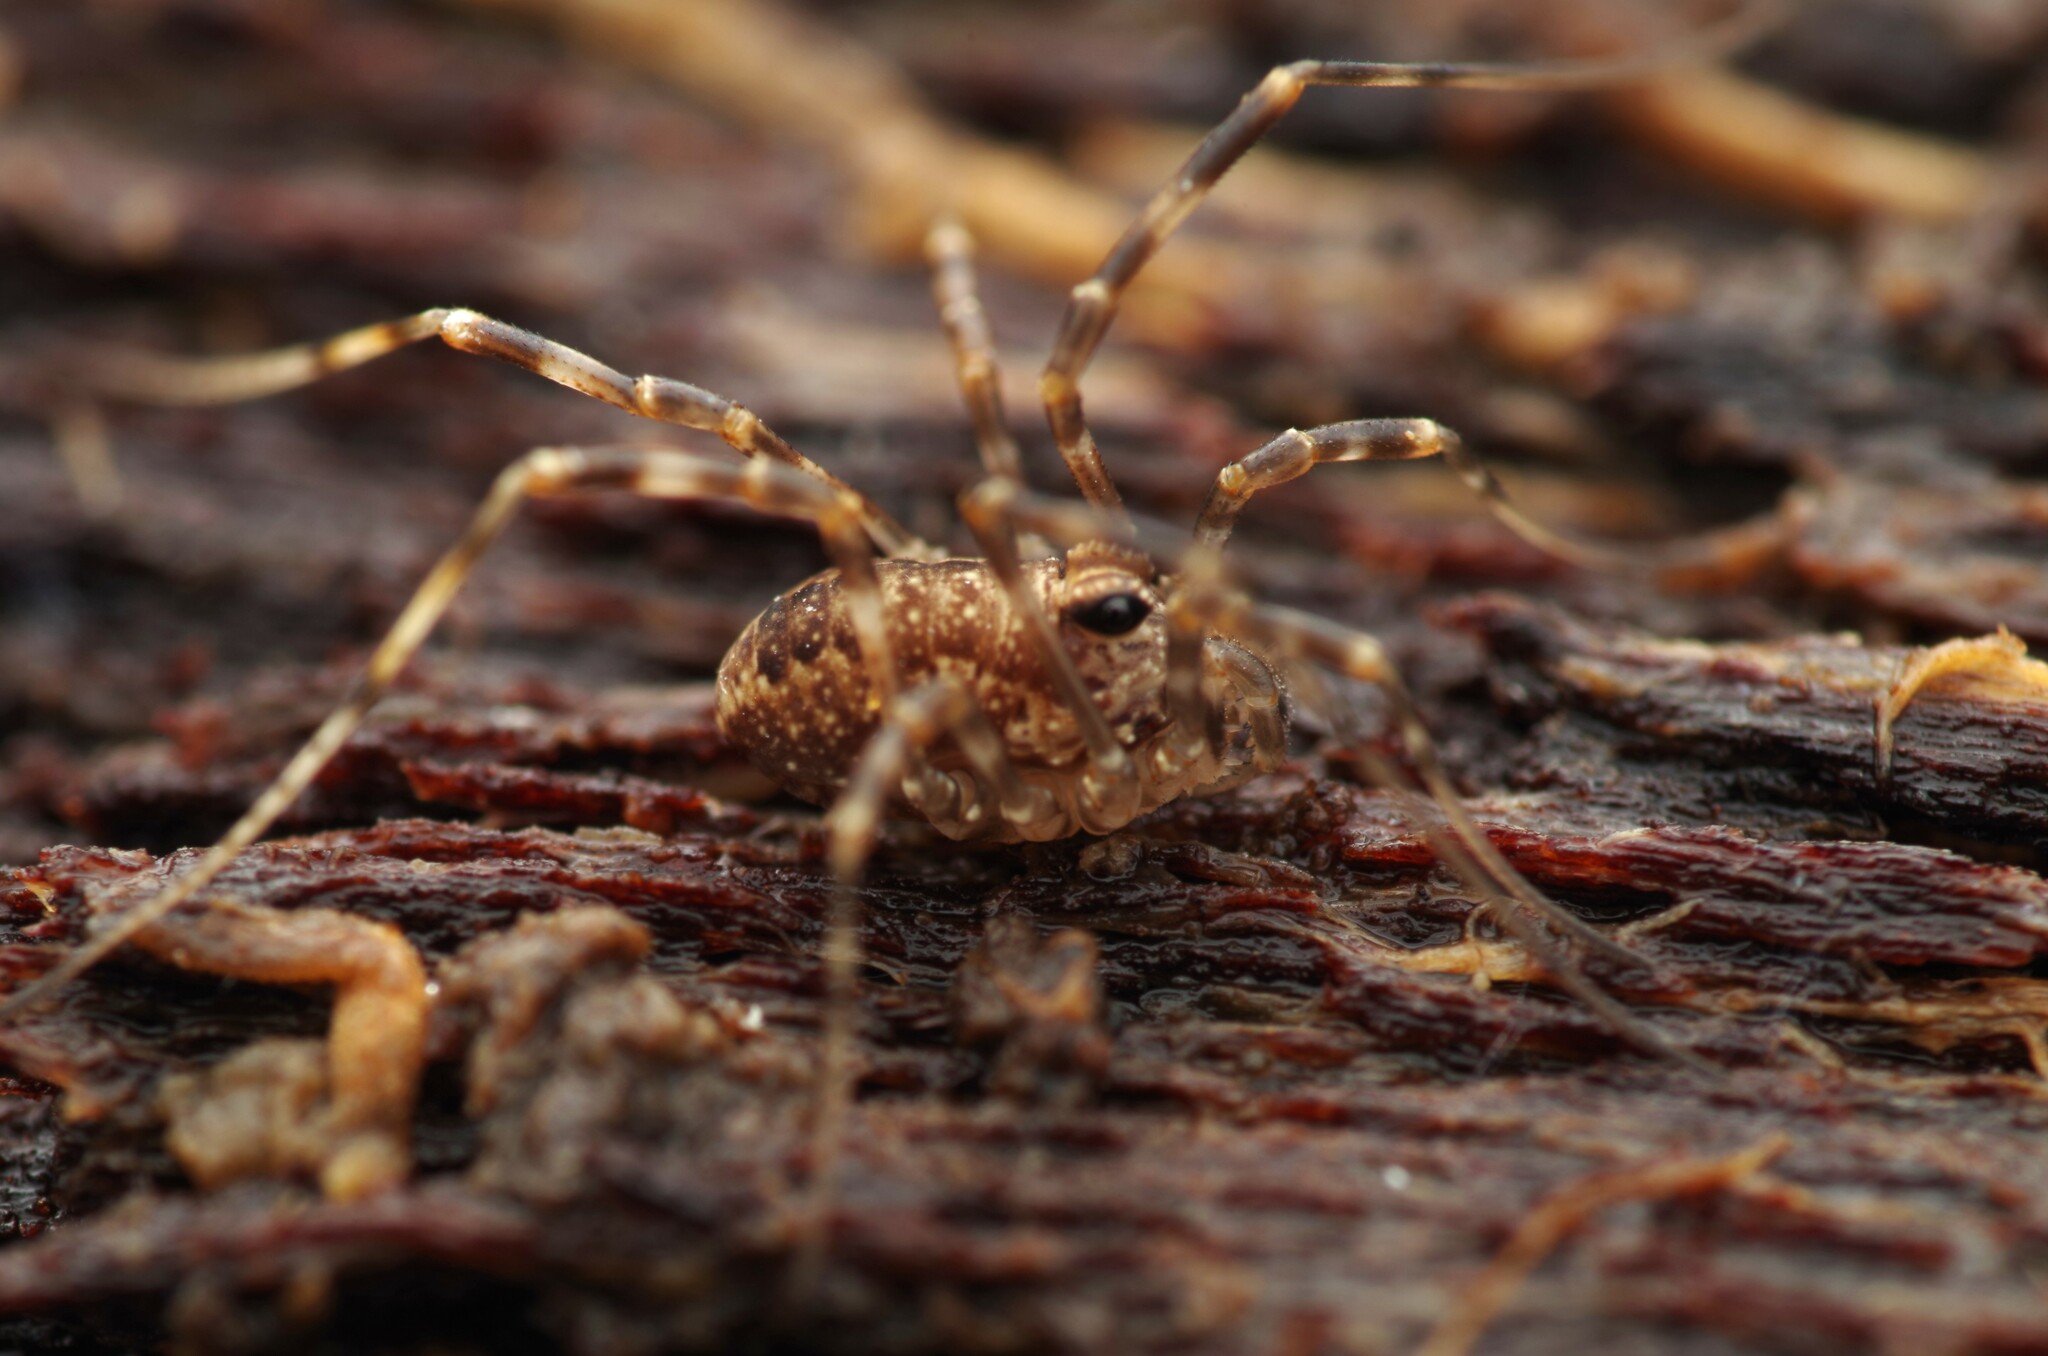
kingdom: Animalia
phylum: Arthropoda
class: Arachnida
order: Opiliones
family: Phalangiidae
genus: Rilaena
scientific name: Rilaena triangularis
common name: Spring harvestman
